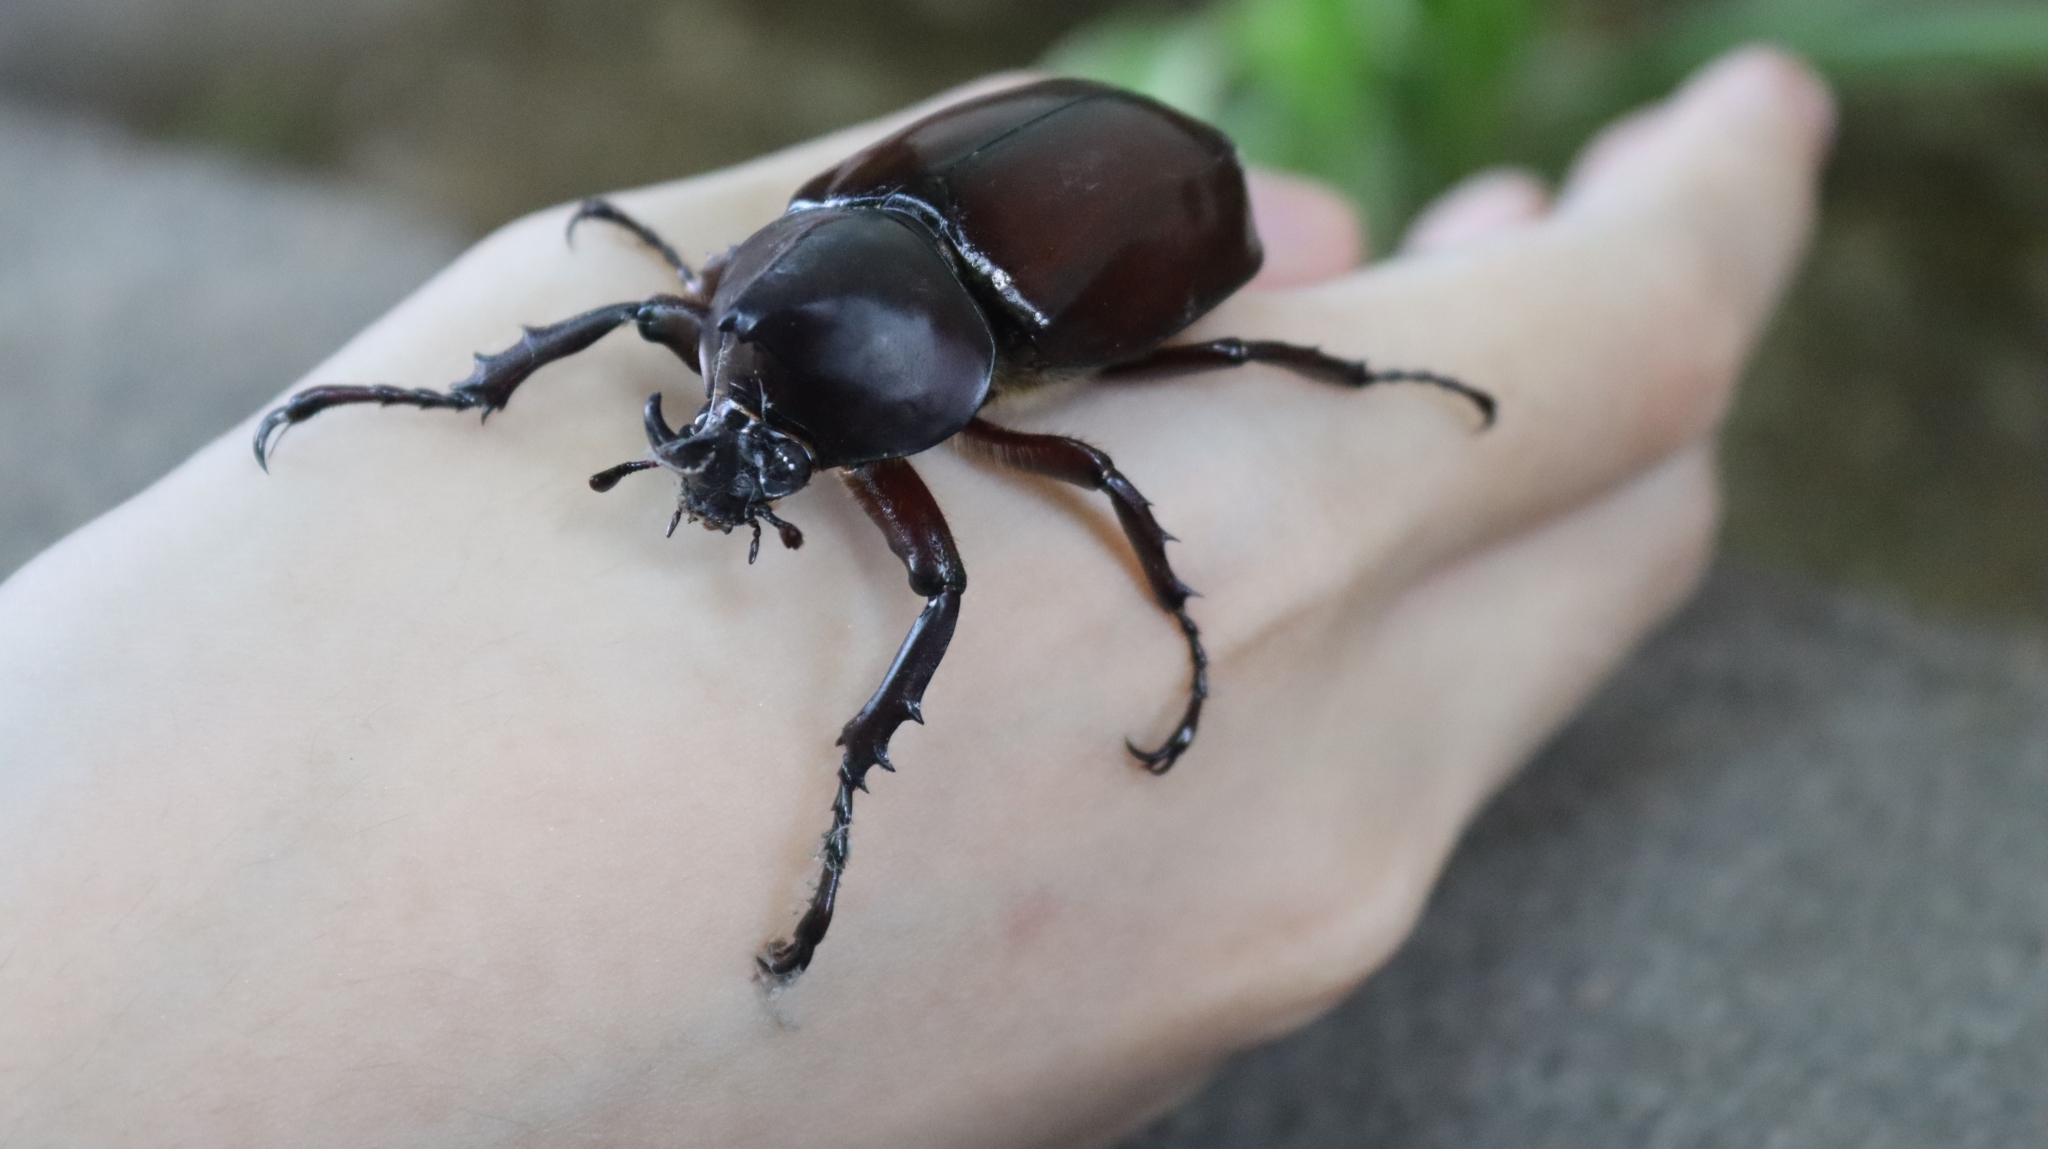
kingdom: Animalia
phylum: Arthropoda
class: Insecta
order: Coleoptera
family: Scarabaeidae
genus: Xylotrupes
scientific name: Xylotrupes gideon
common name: Elephant beetle
